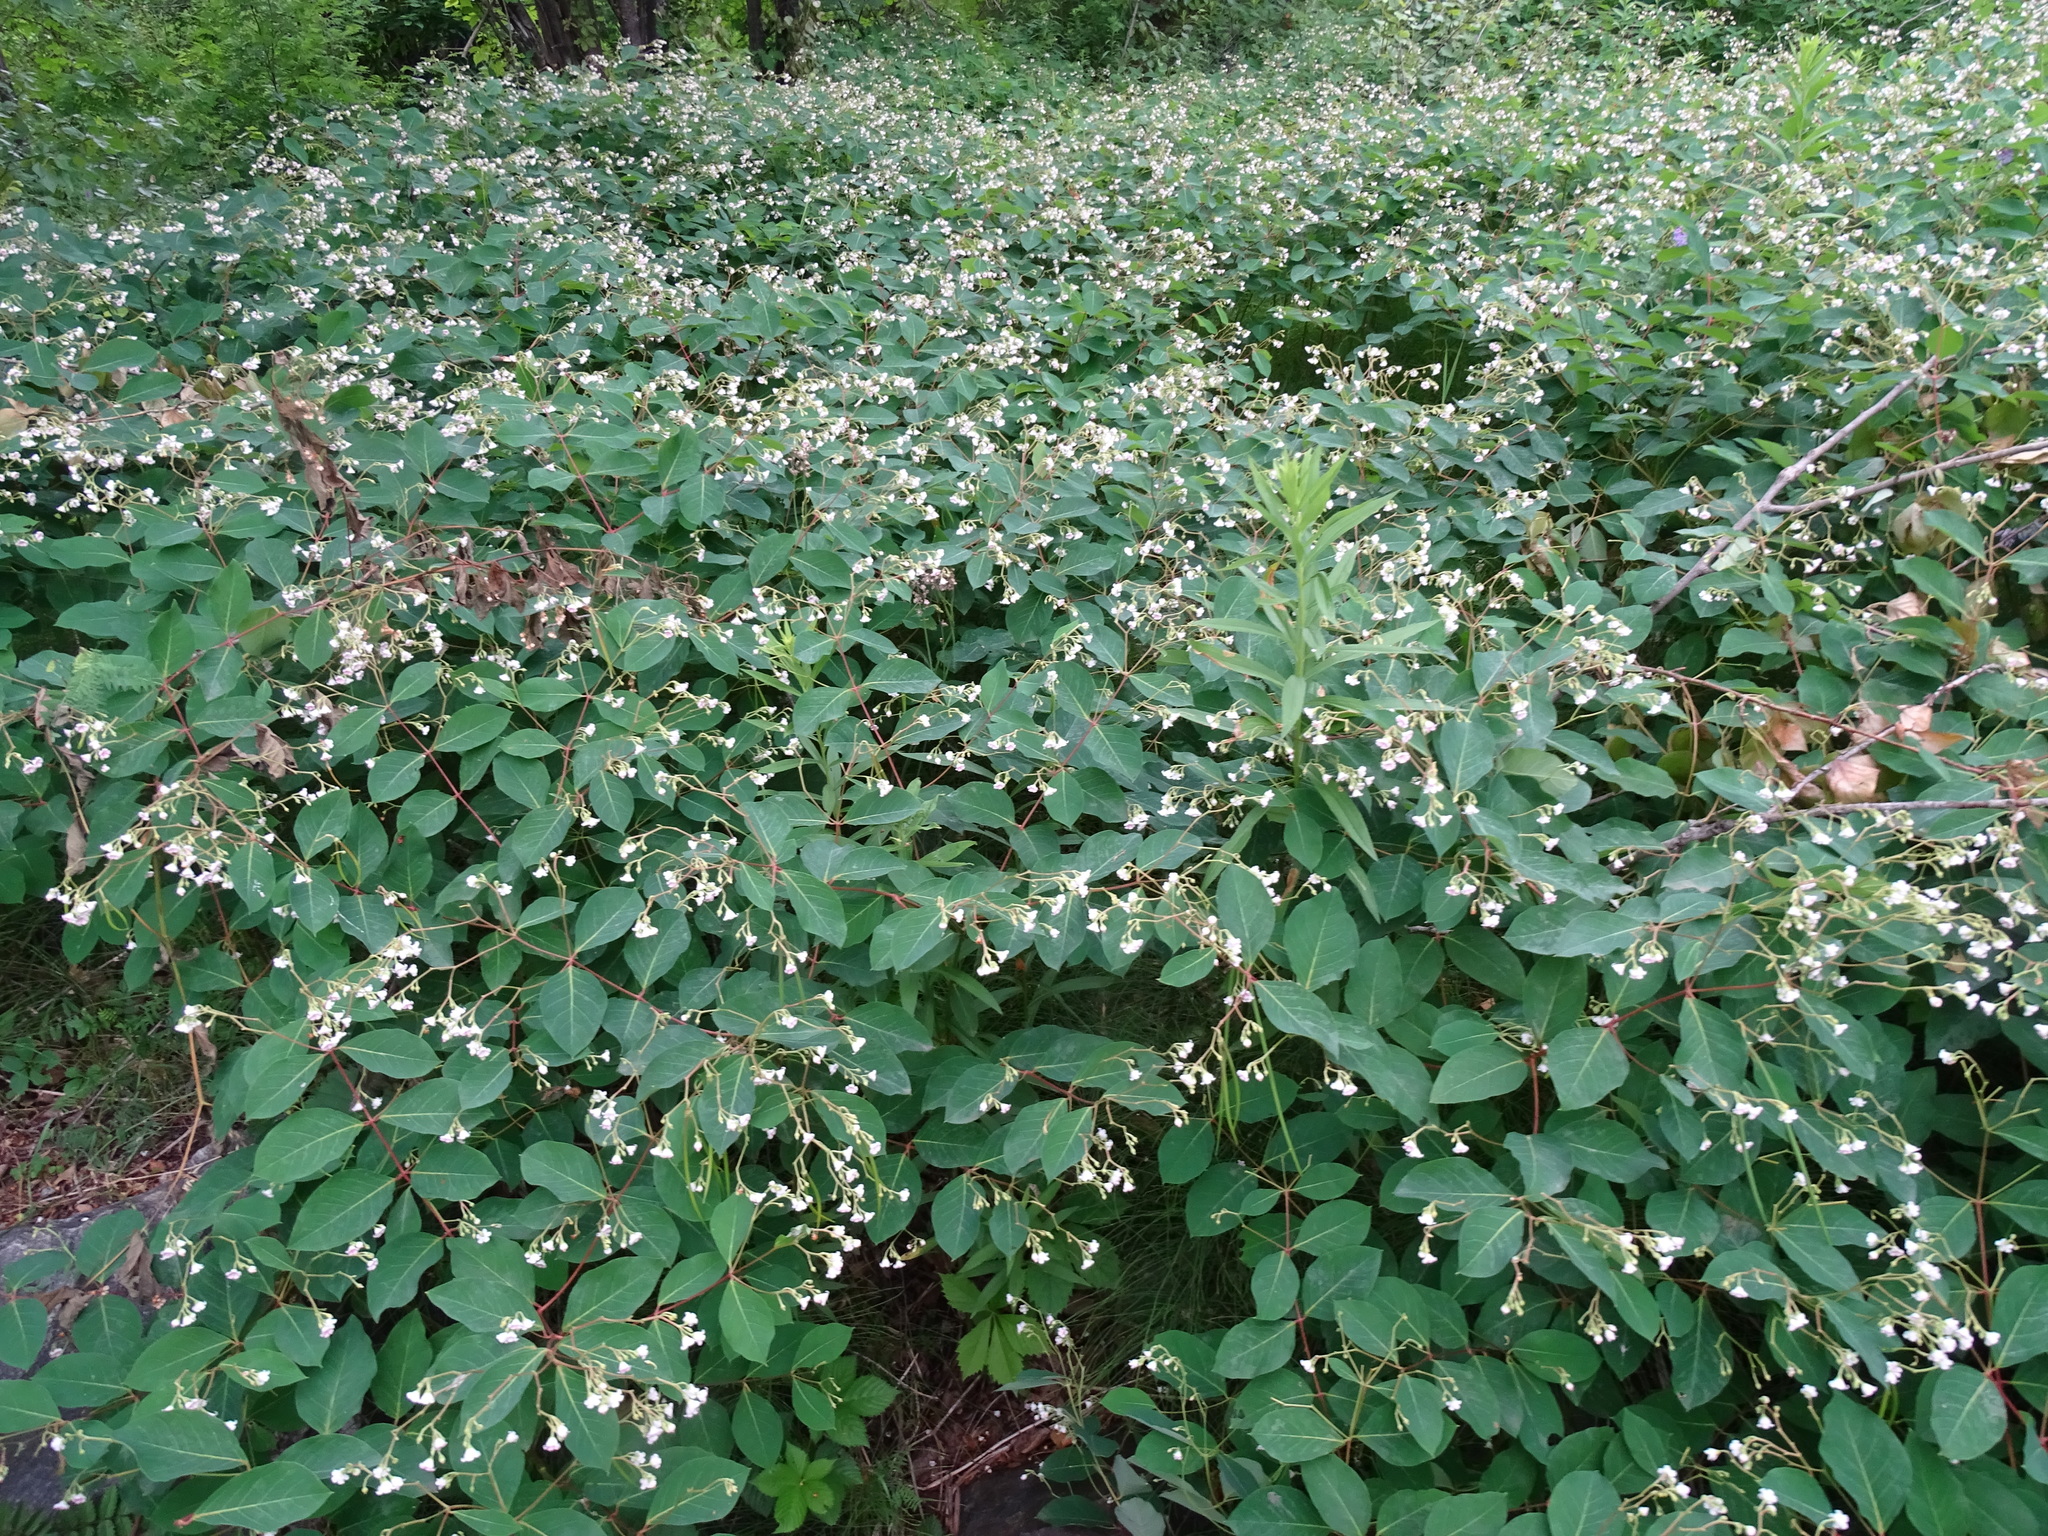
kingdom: Plantae
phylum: Tracheophyta
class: Magnoliopsida
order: Gentianales
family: Apocynaceae
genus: Apocynum
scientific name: Apocynum androsaemifolium
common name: Spreading dogbane
